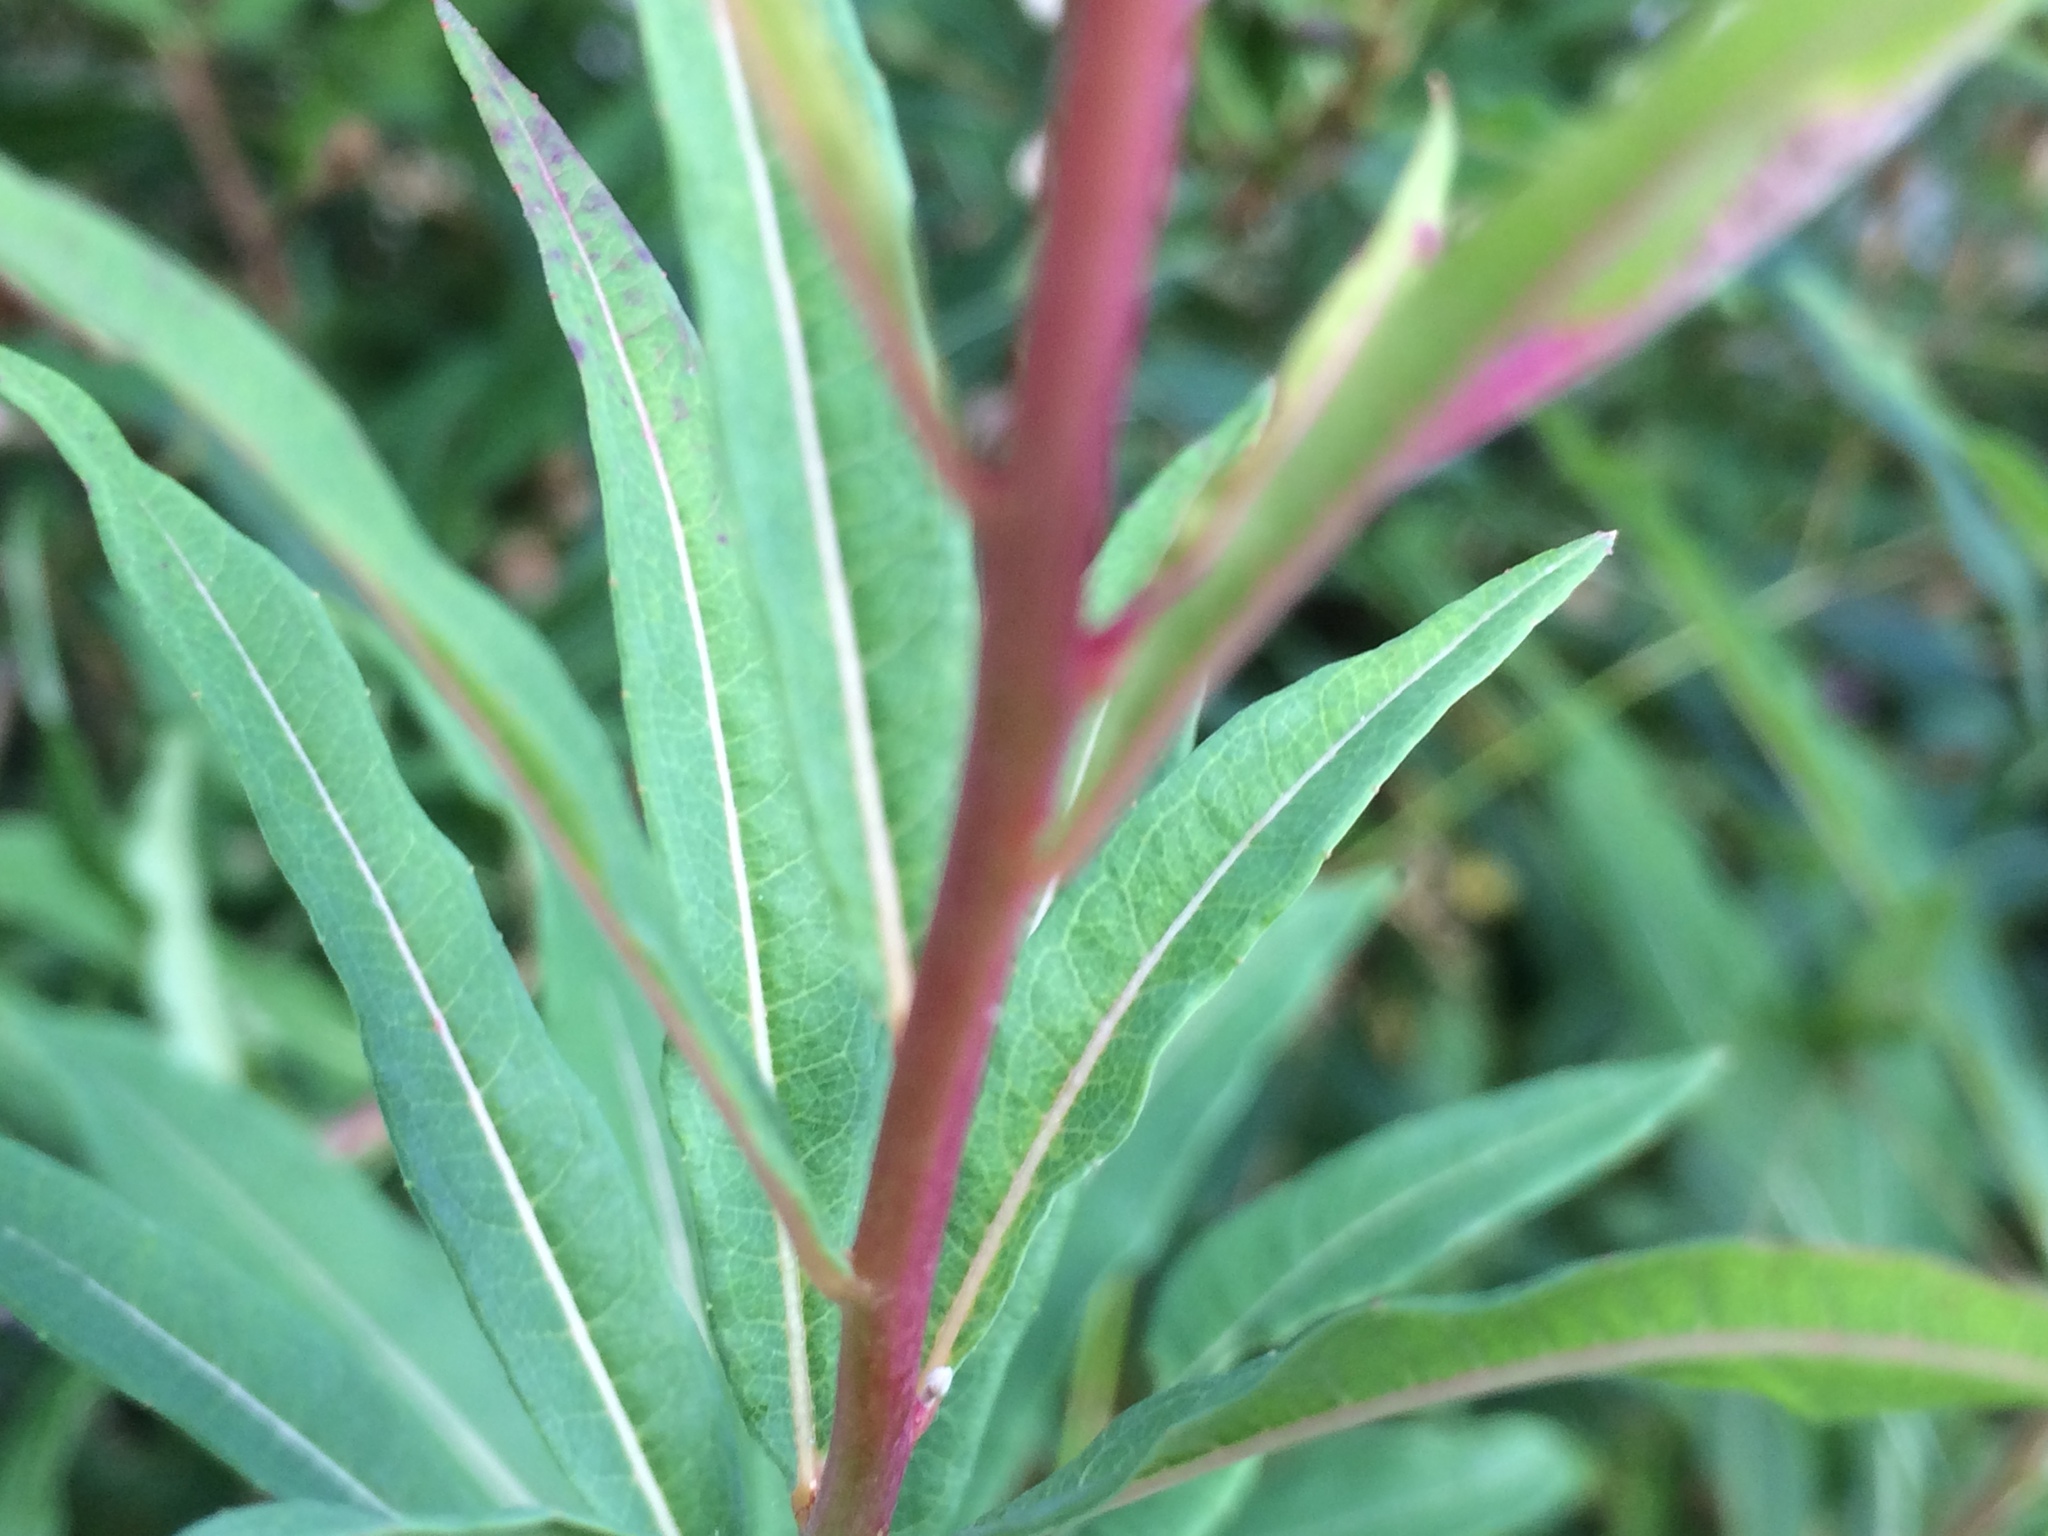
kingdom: Plantae
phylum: Tracheophyta
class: Magnoliopsida
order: Myrtales
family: Onagraceae
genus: Chamaenerion
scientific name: Chamaenerion angustifolium
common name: Fireweed
